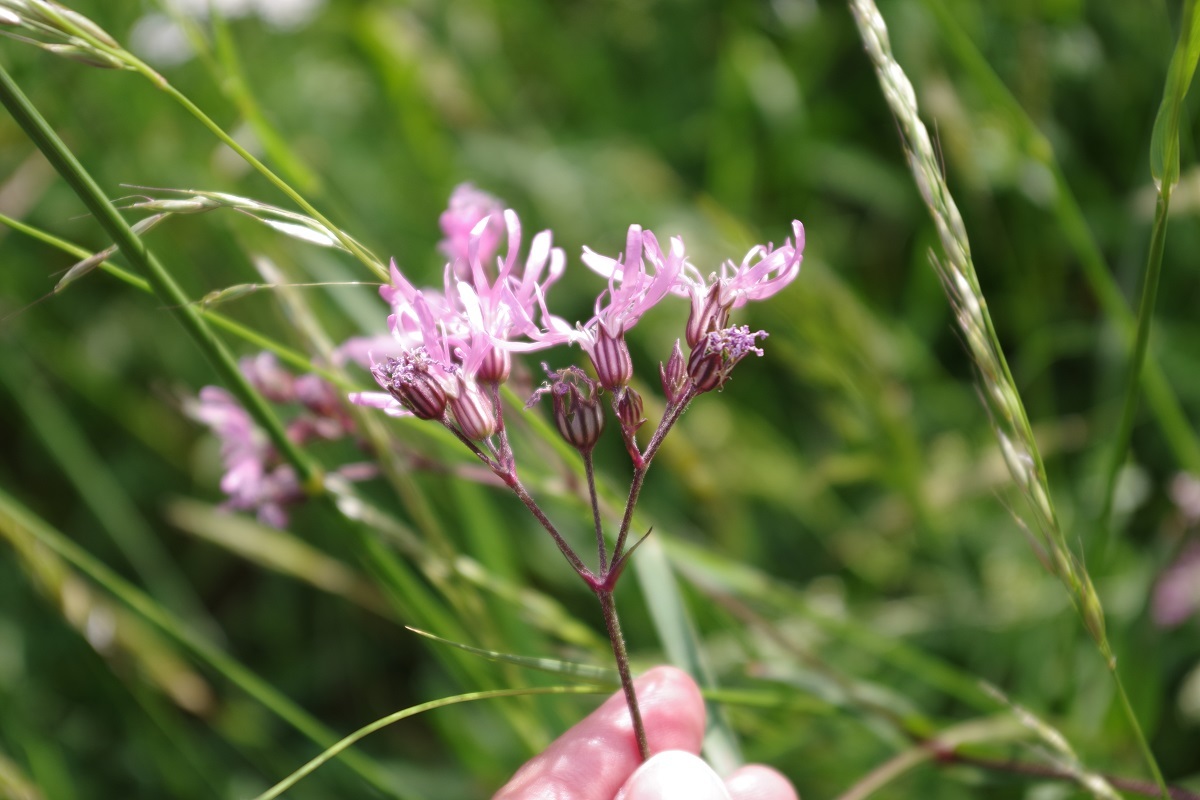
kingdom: Plantae
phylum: Tracheophyta
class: Magnoliopsida
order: Caryophyllales
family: Caryophyllaceae
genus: Silene
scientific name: Silene flos-cuculi
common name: Ragged-robin
